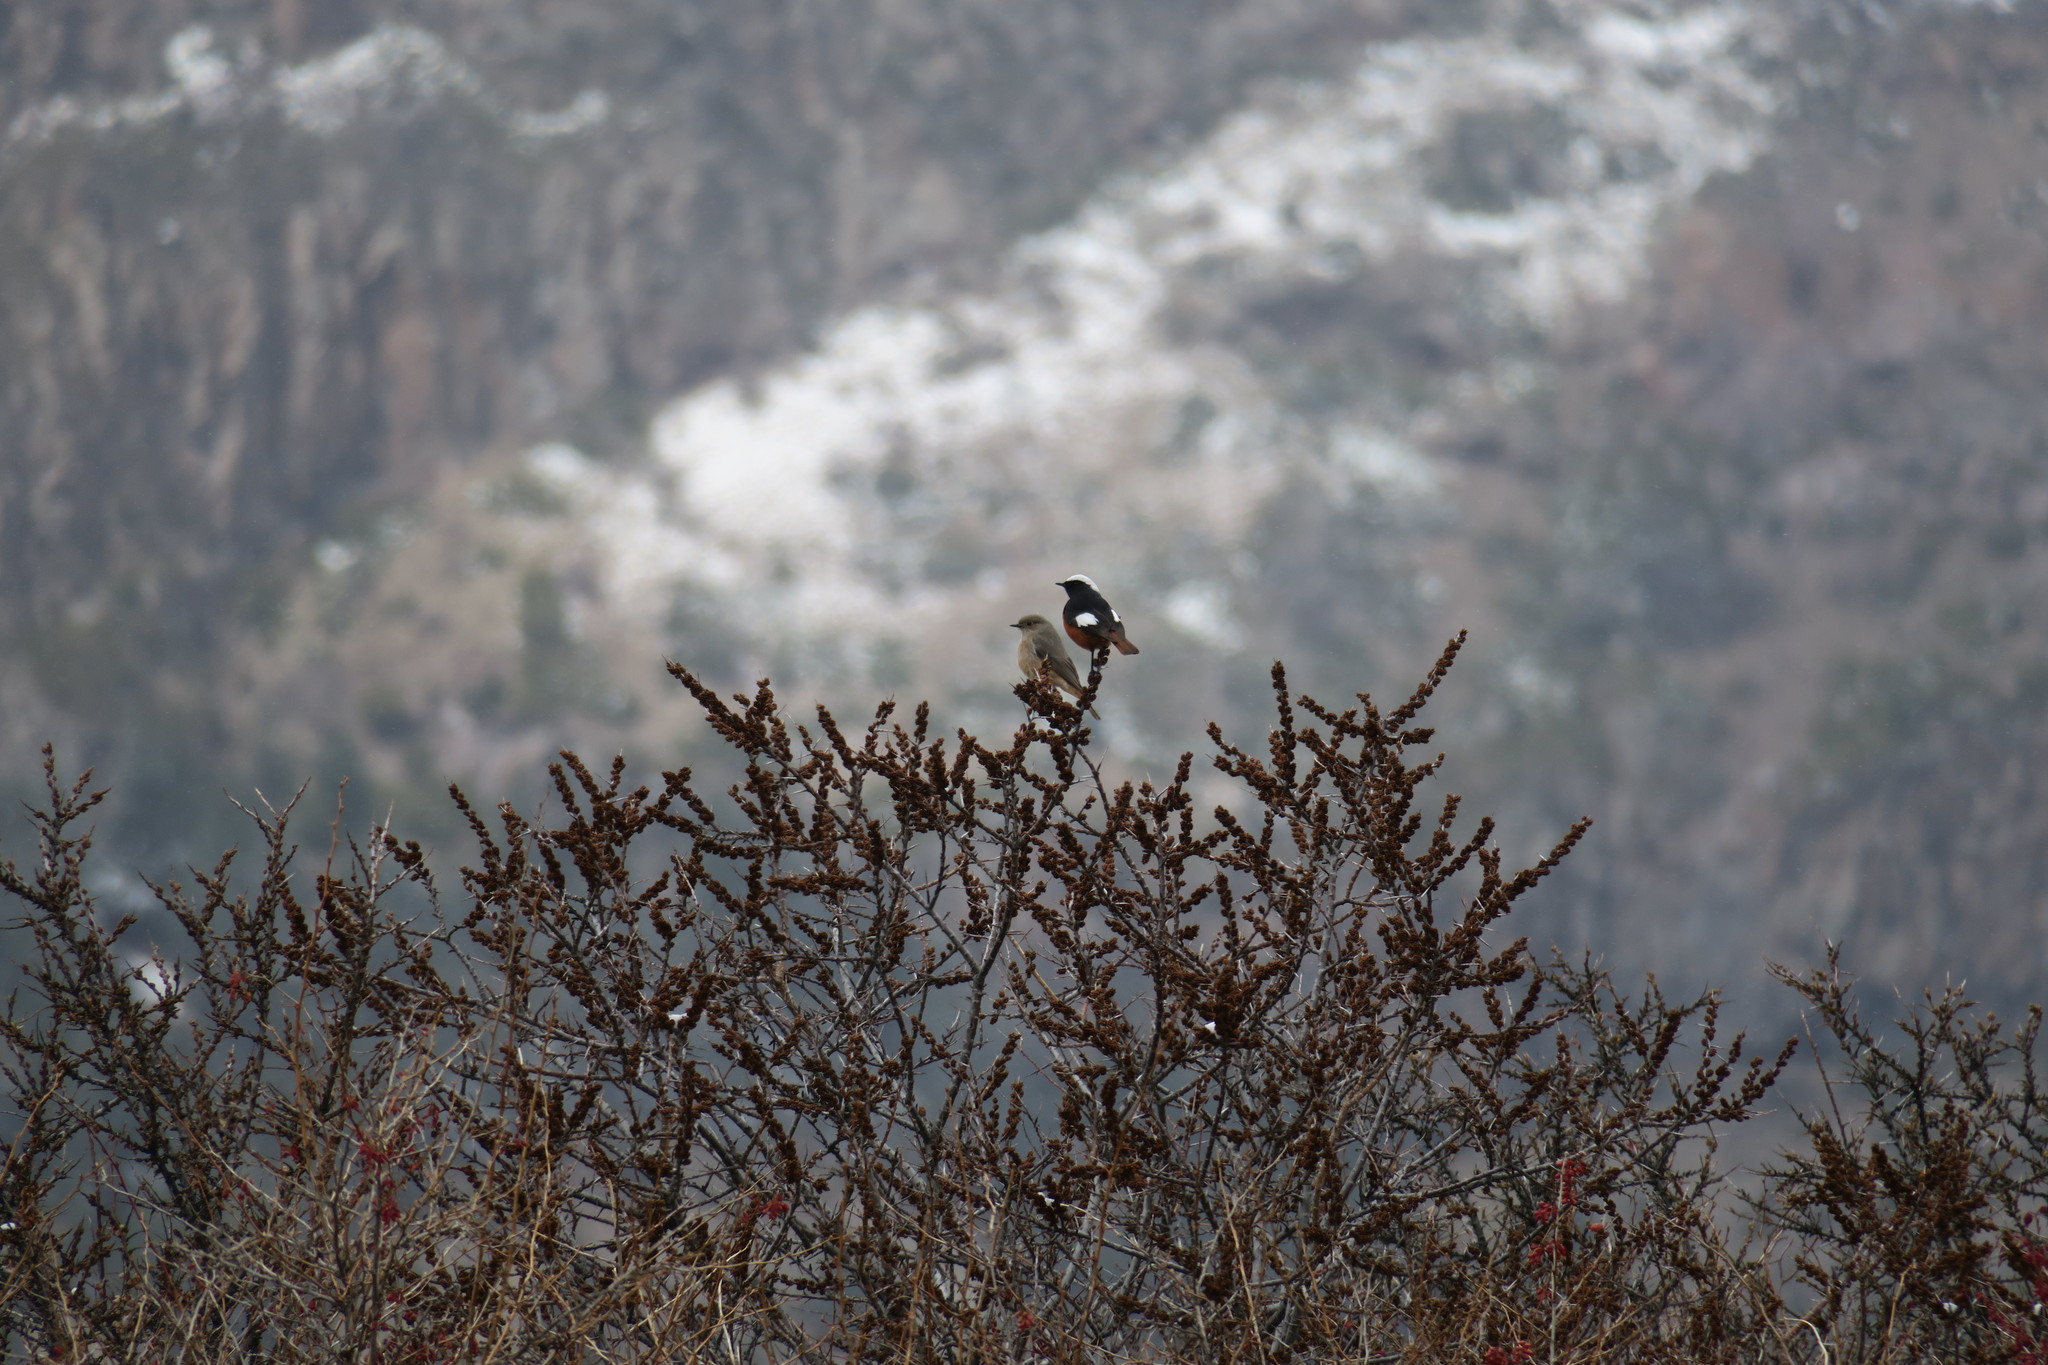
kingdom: Animalia
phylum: Chordata
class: Aves
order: Passeriformes
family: Muscicapidae
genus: Phoenicurus
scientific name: Phoenicurus erythrogastrus
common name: Güldenstädt's redstart
